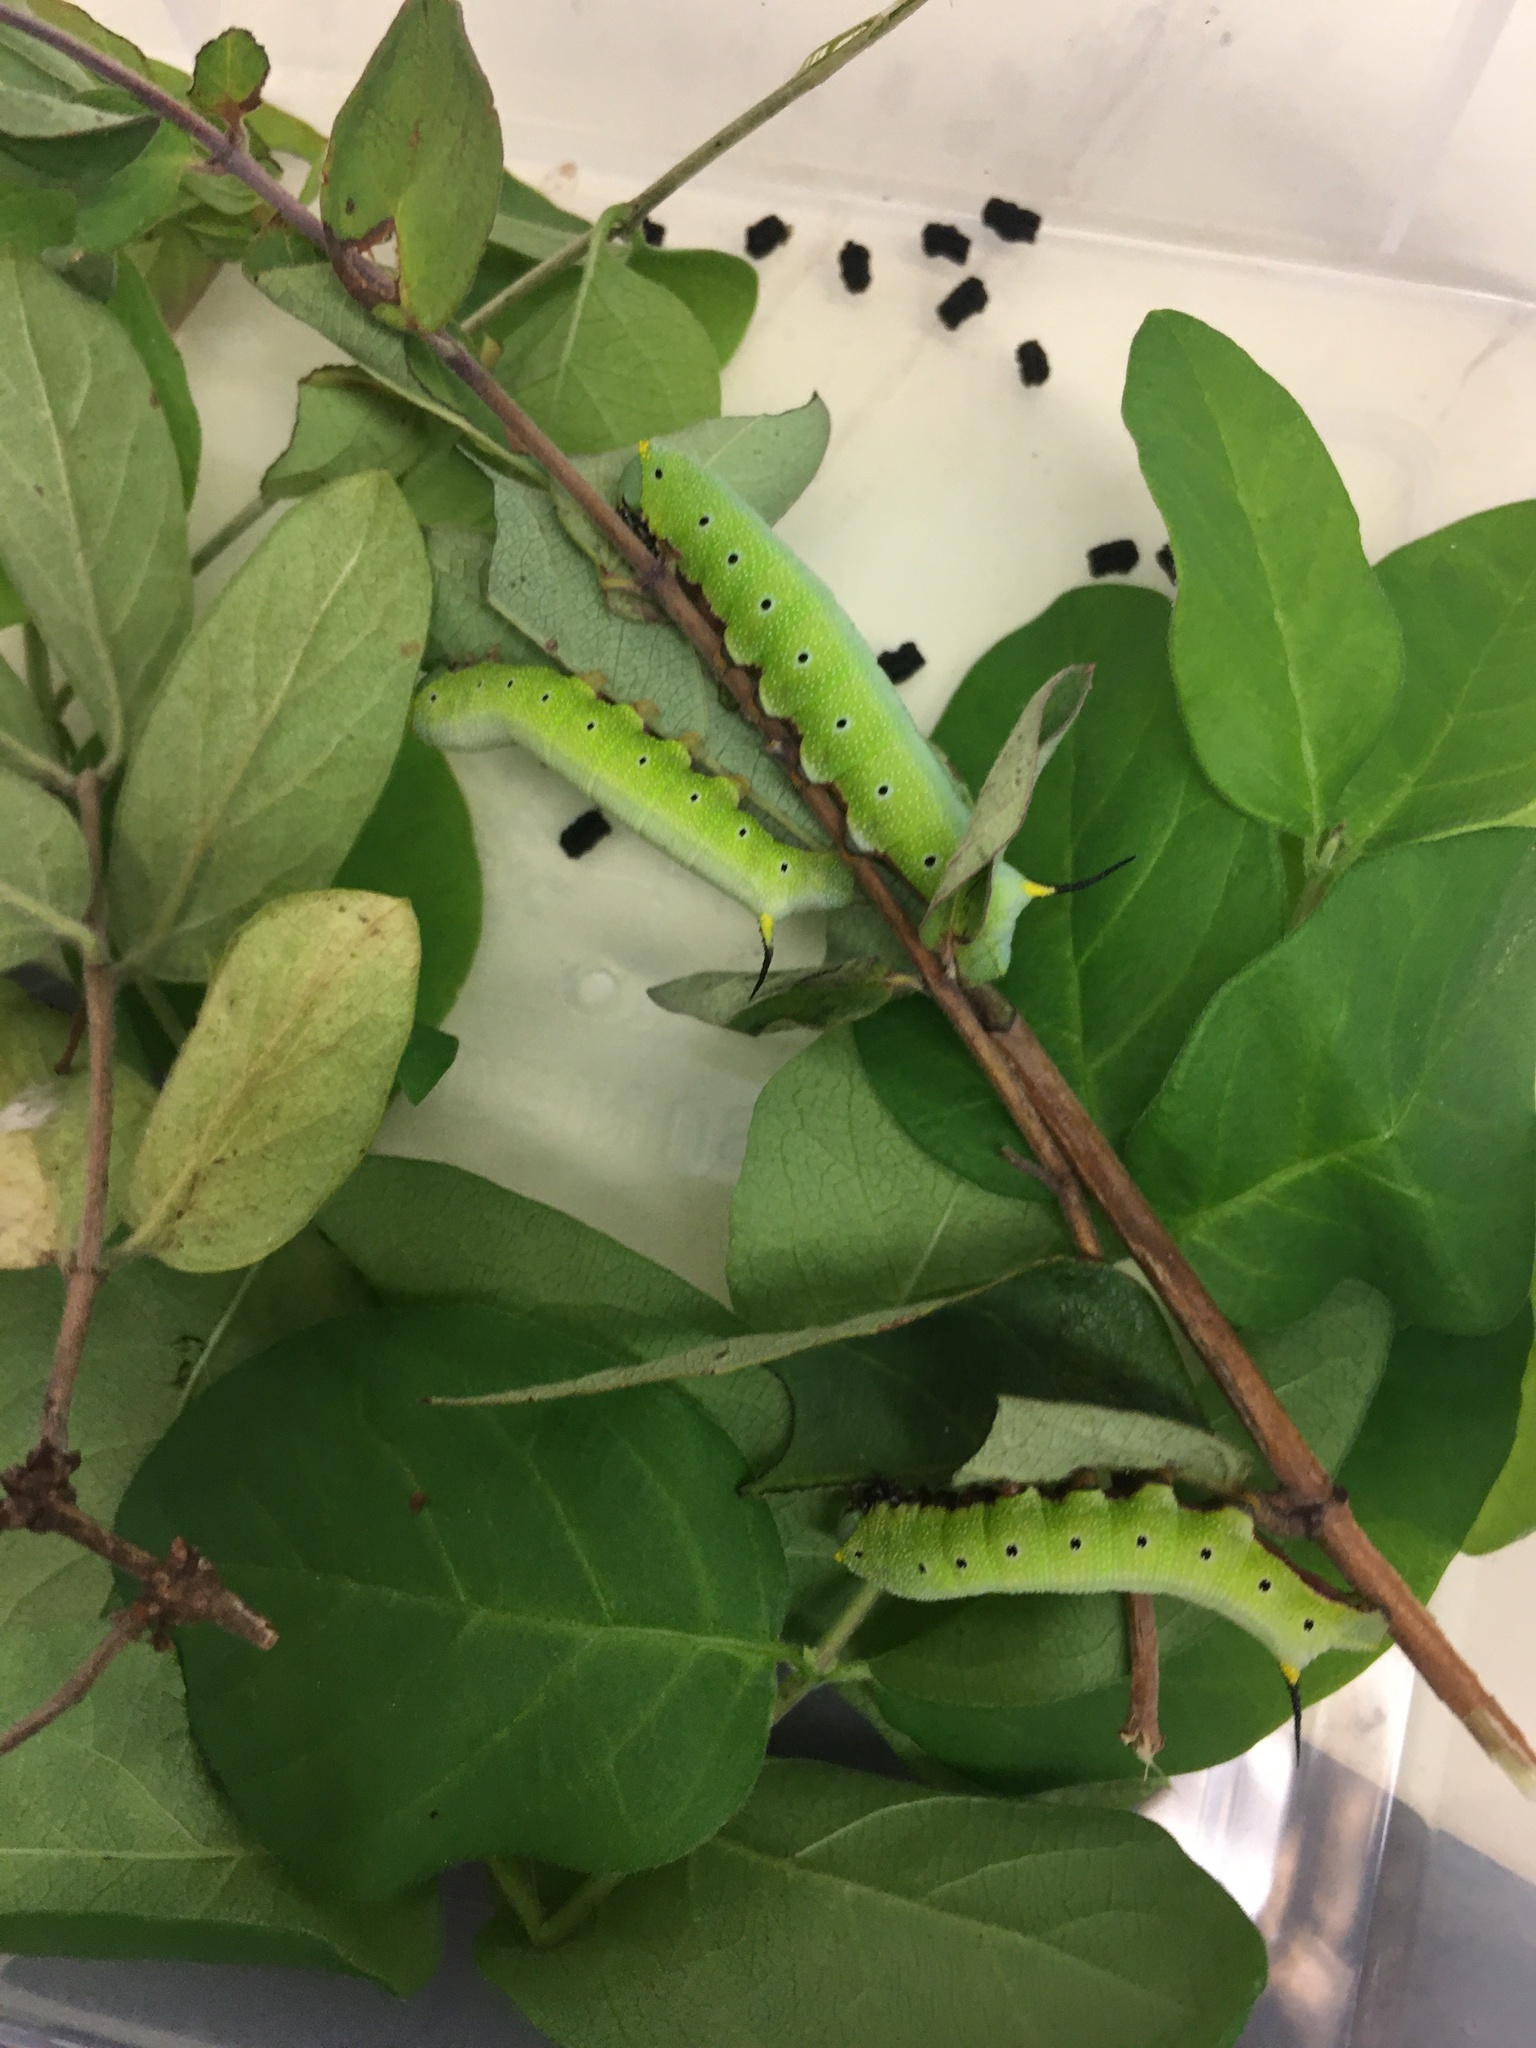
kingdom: Animalia
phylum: Arthropoda
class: Insecta
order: Lepidoptera
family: Sphingidae
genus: Hemaris
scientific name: Hemaris diffinis
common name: Bumblebee moth
